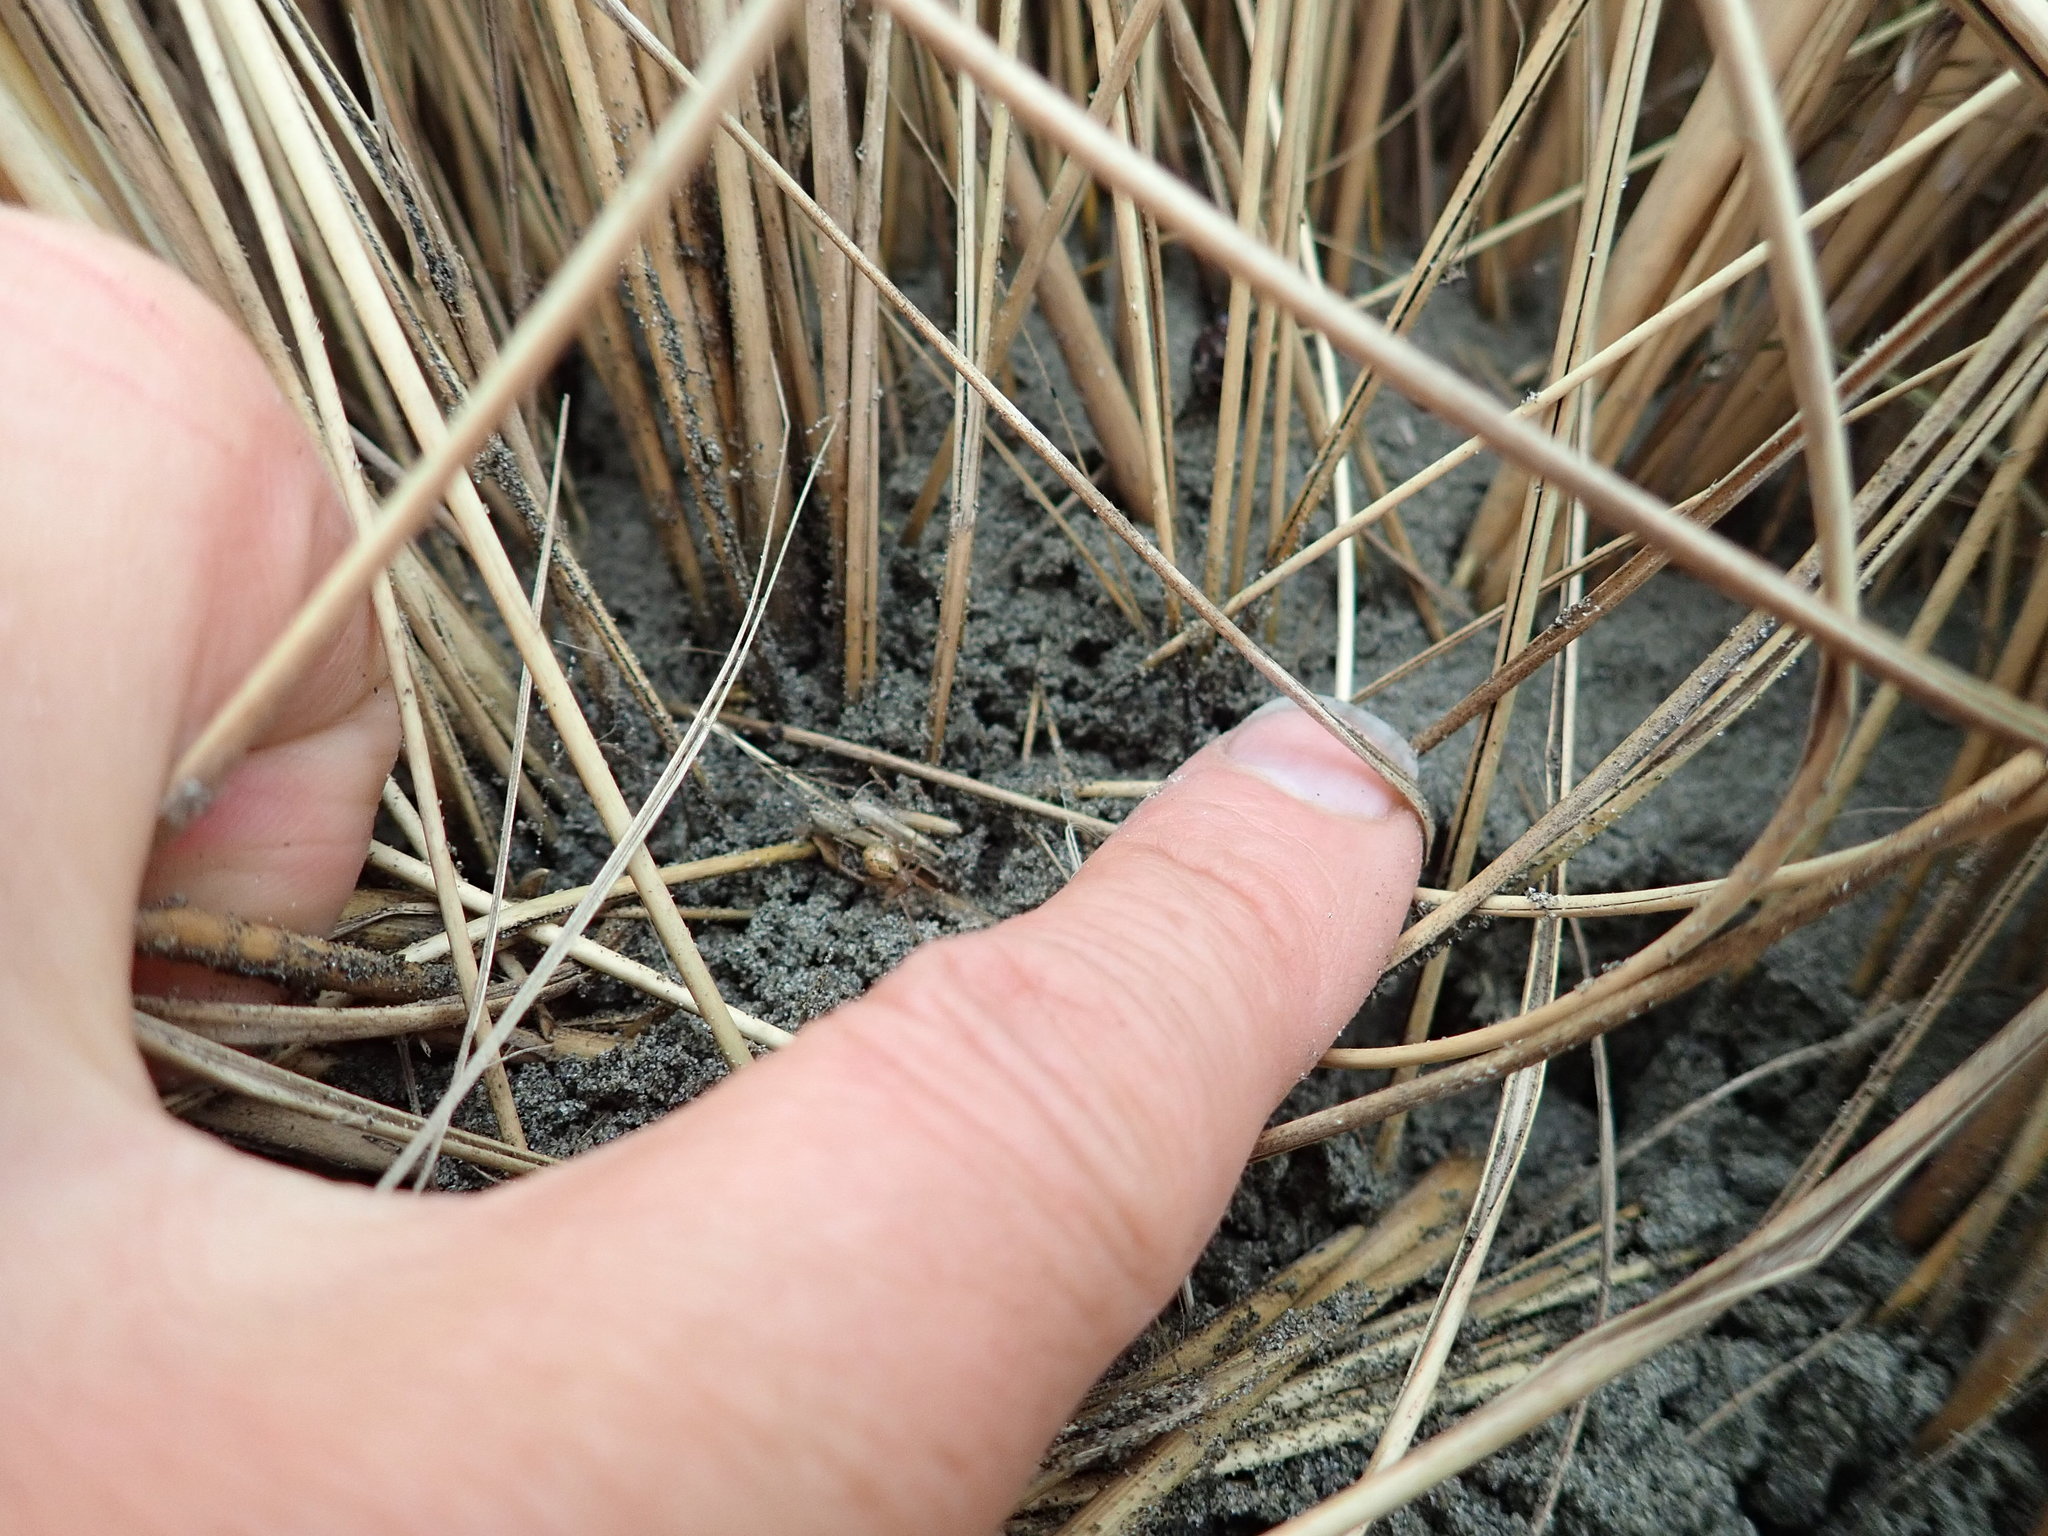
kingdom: Animalia
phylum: Arthropoda
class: Arachnida
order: Araneae
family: Theridiidae
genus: Cryptachaea
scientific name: Cryptachaea veruculata
